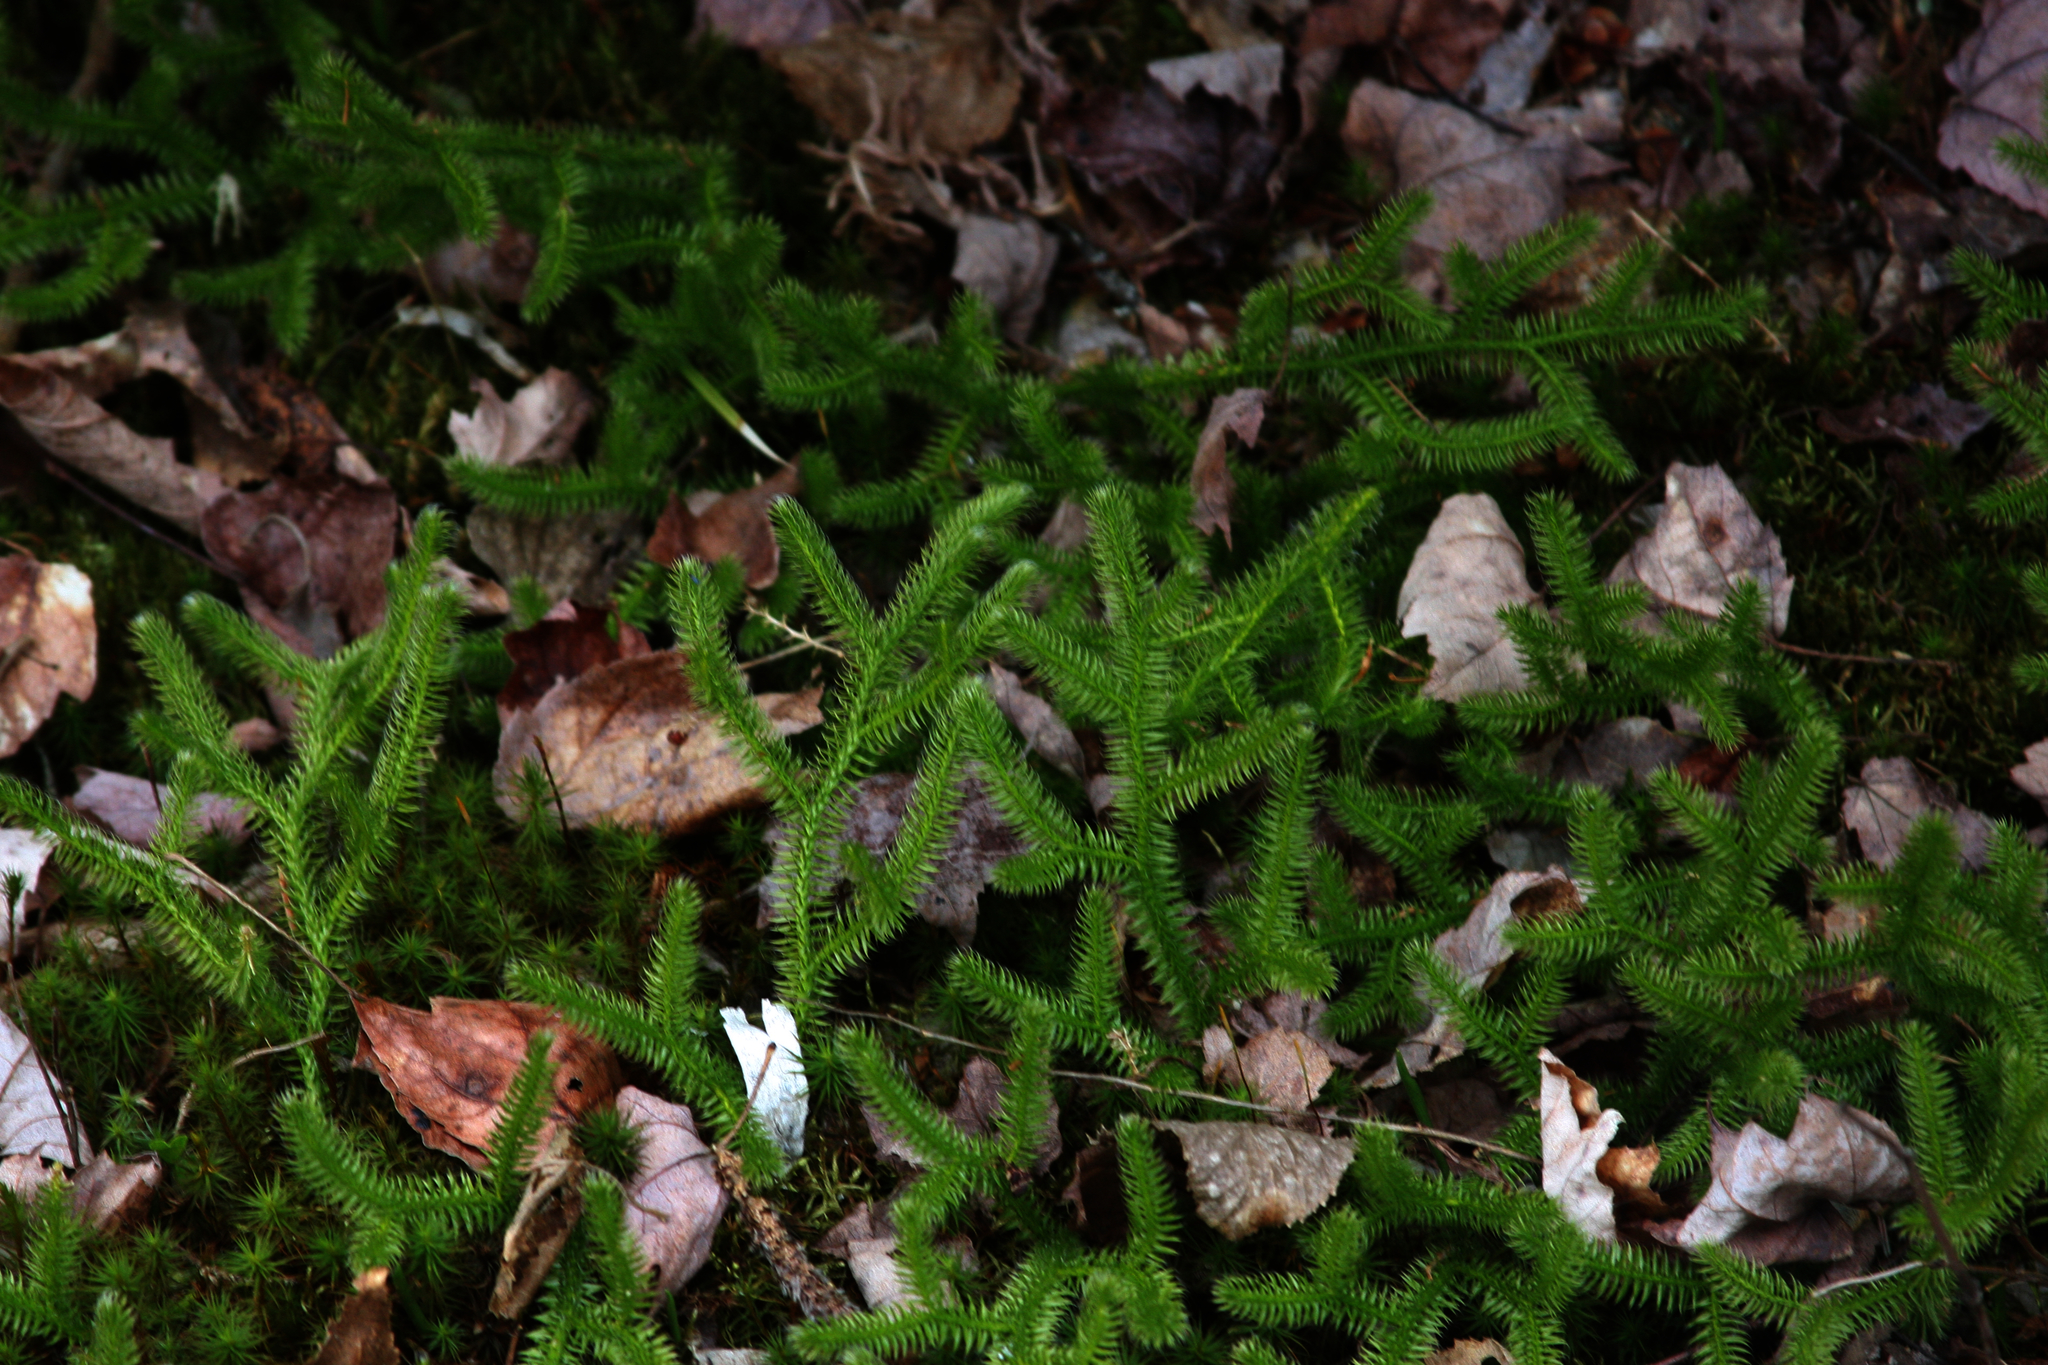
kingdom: Plantae
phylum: Tracheophyta
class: Lycopodiopsida
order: Lycopodiales
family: Lycopodiaceae
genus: Lycopodium
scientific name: Lycopodium clavatum
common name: Stag's-horn clubmoss
